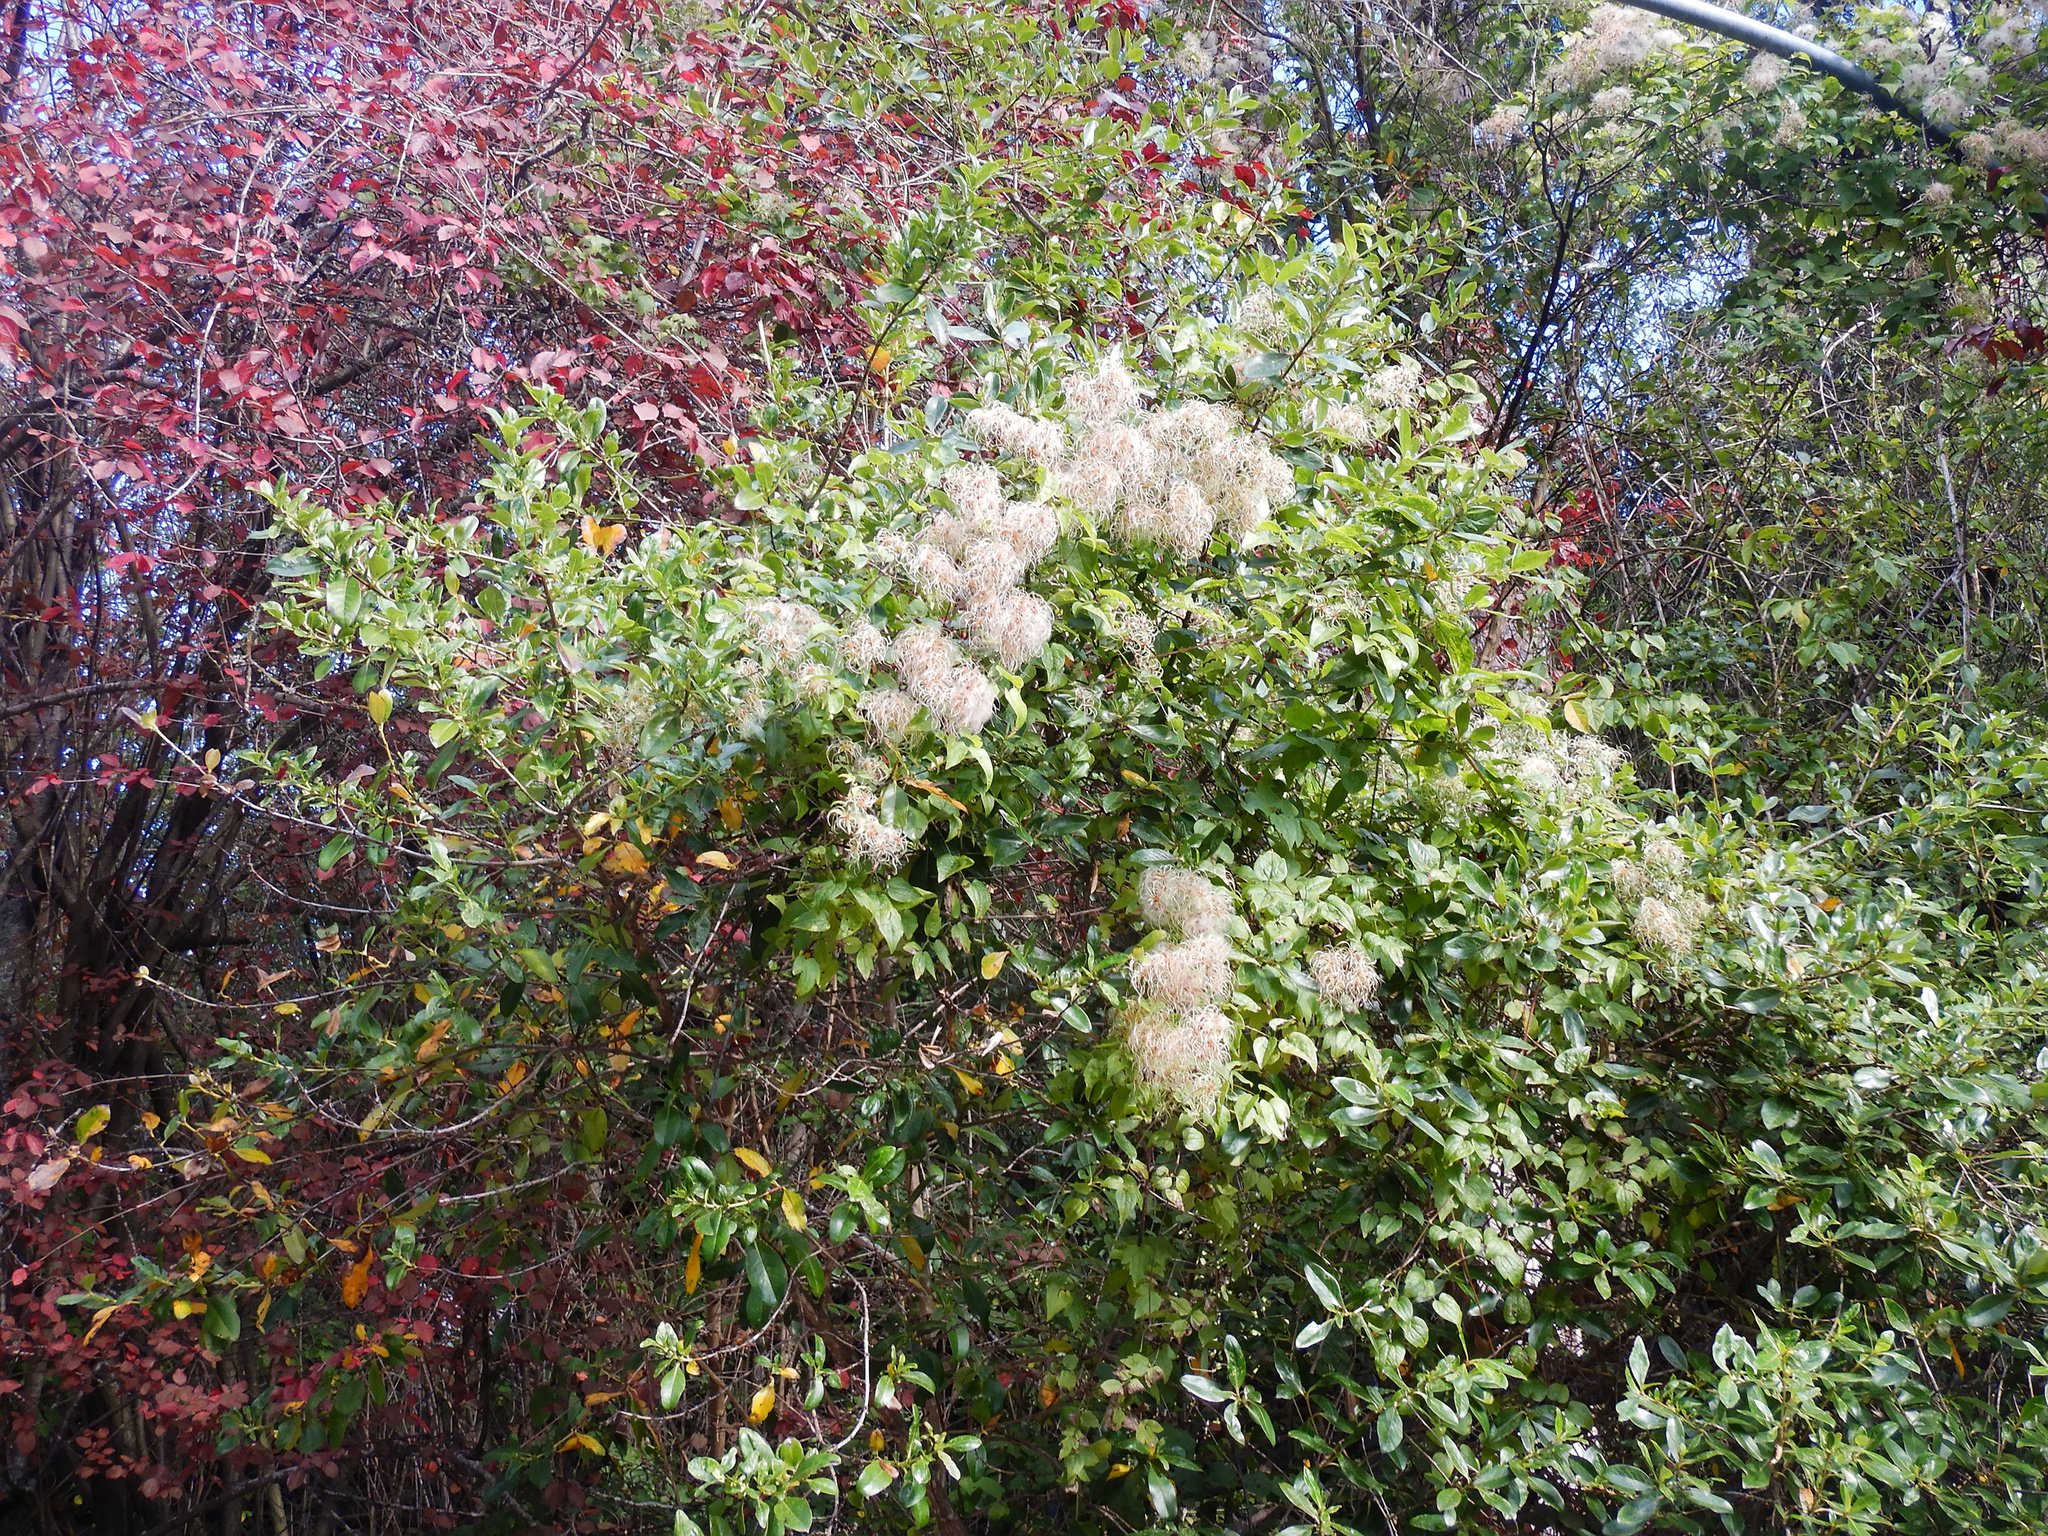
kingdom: Plantae
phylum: Tracheophyta
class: Magnoliopsida
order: Ranunculales
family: Ranunculaceae
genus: Clematis
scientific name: Clematis vitalba
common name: Evergreen clematis
